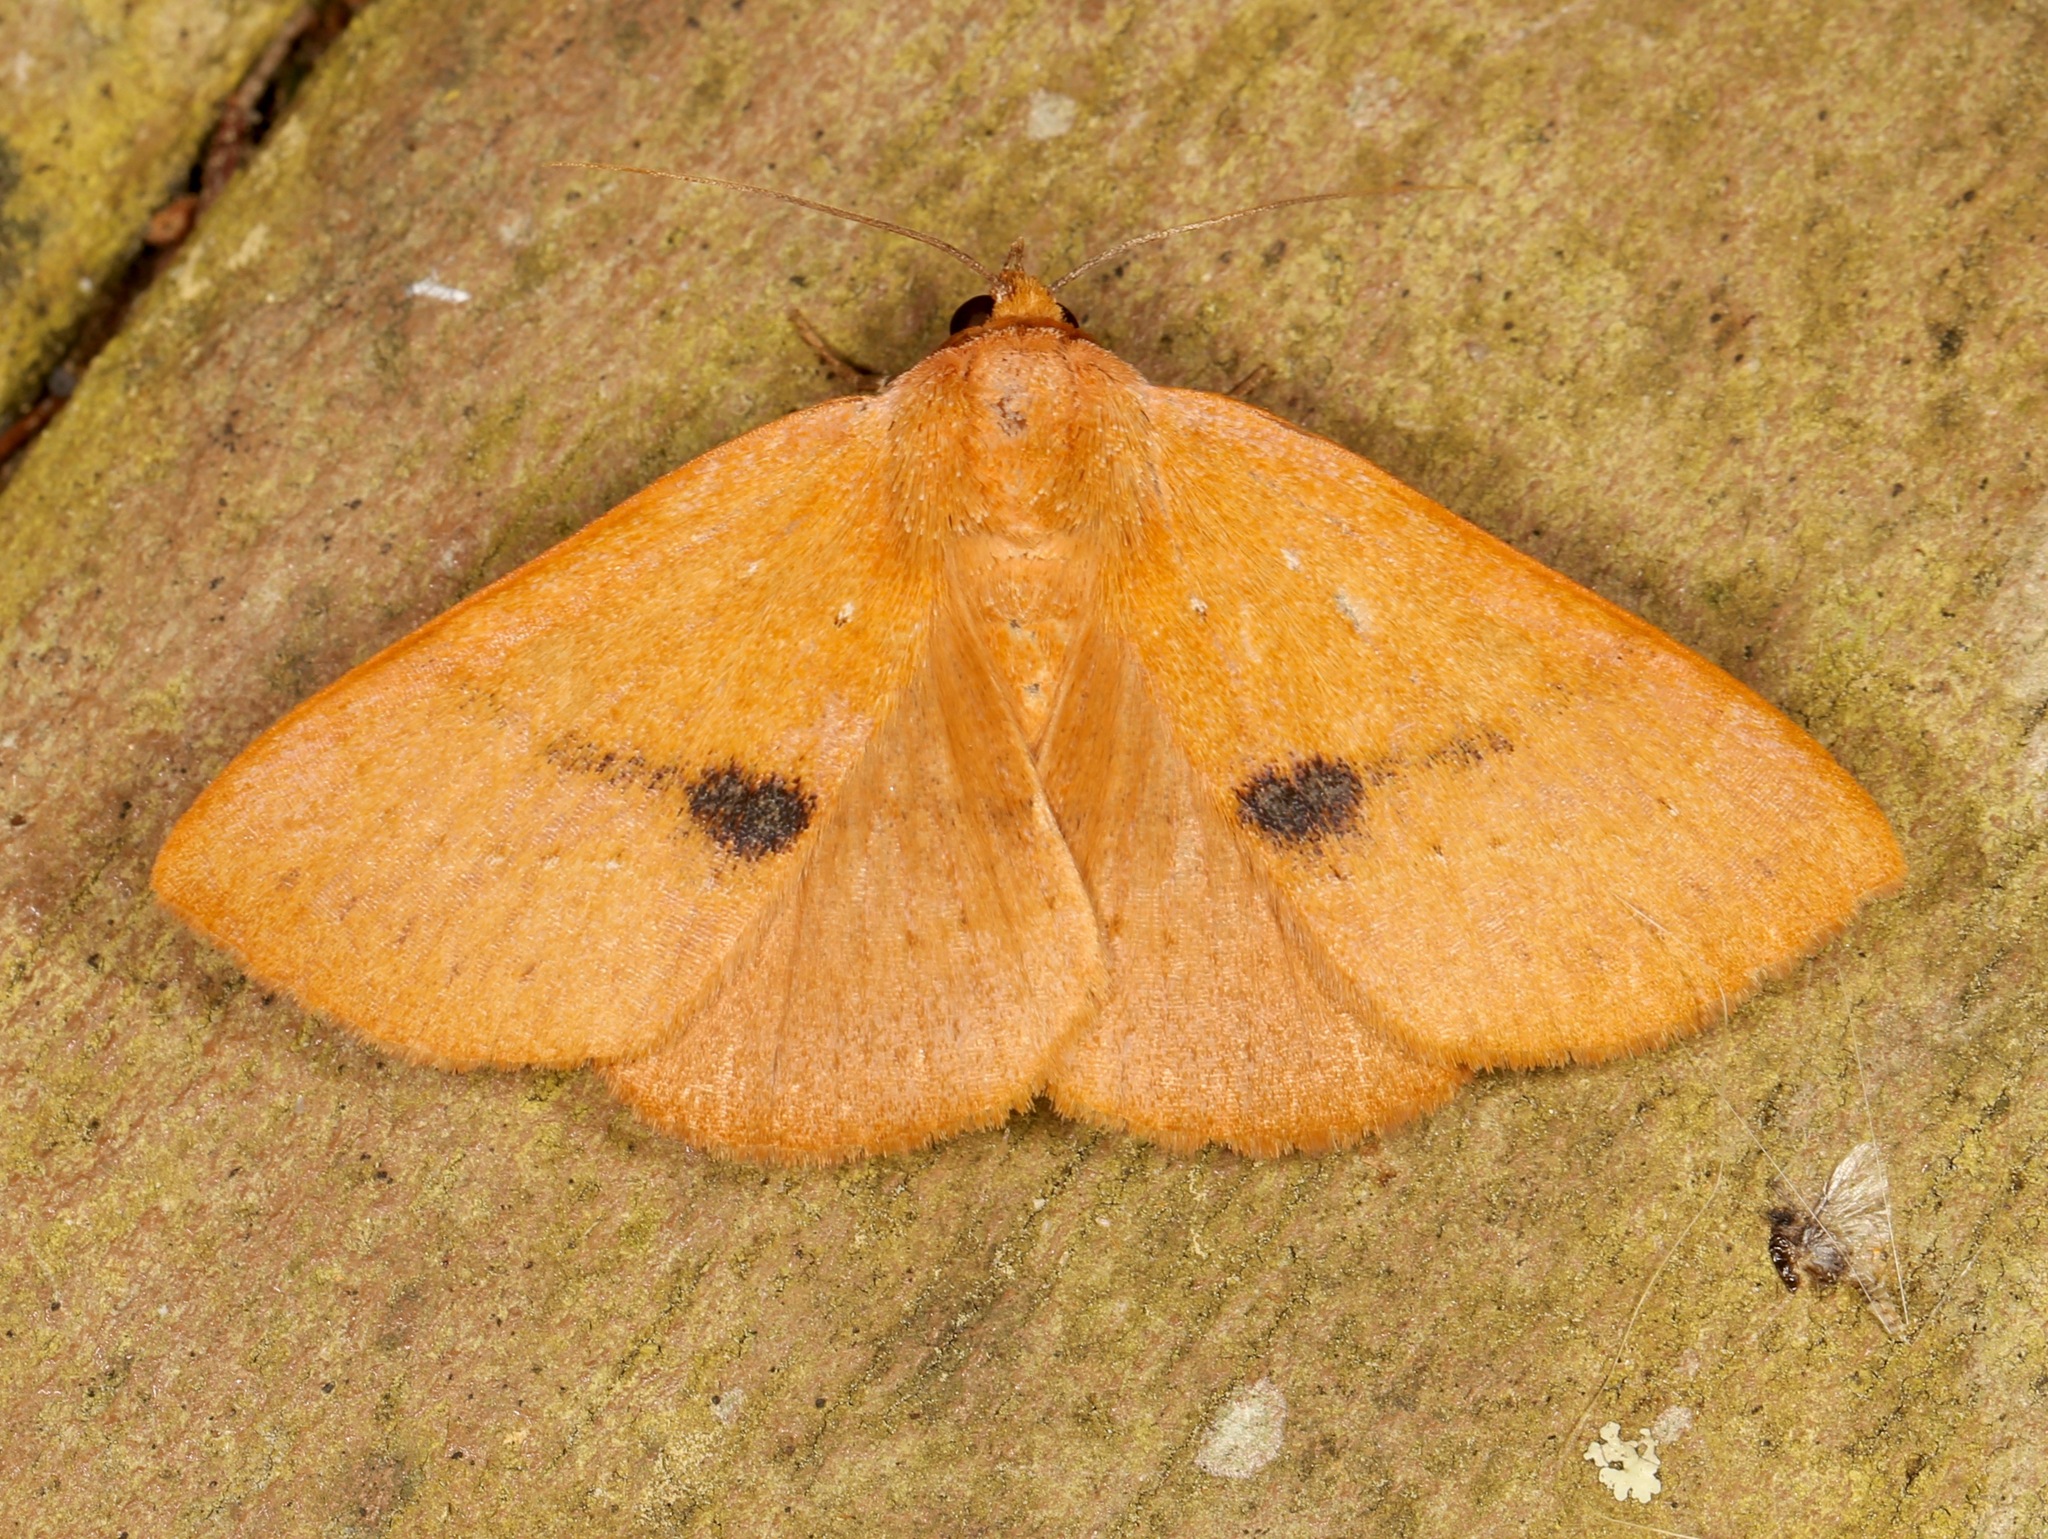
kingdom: Animalia
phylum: Arthropoda
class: Insecta
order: Lepidoptera
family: Erebidae
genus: Panopoda
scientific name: Panopoda repanda
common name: Orange panopoda
